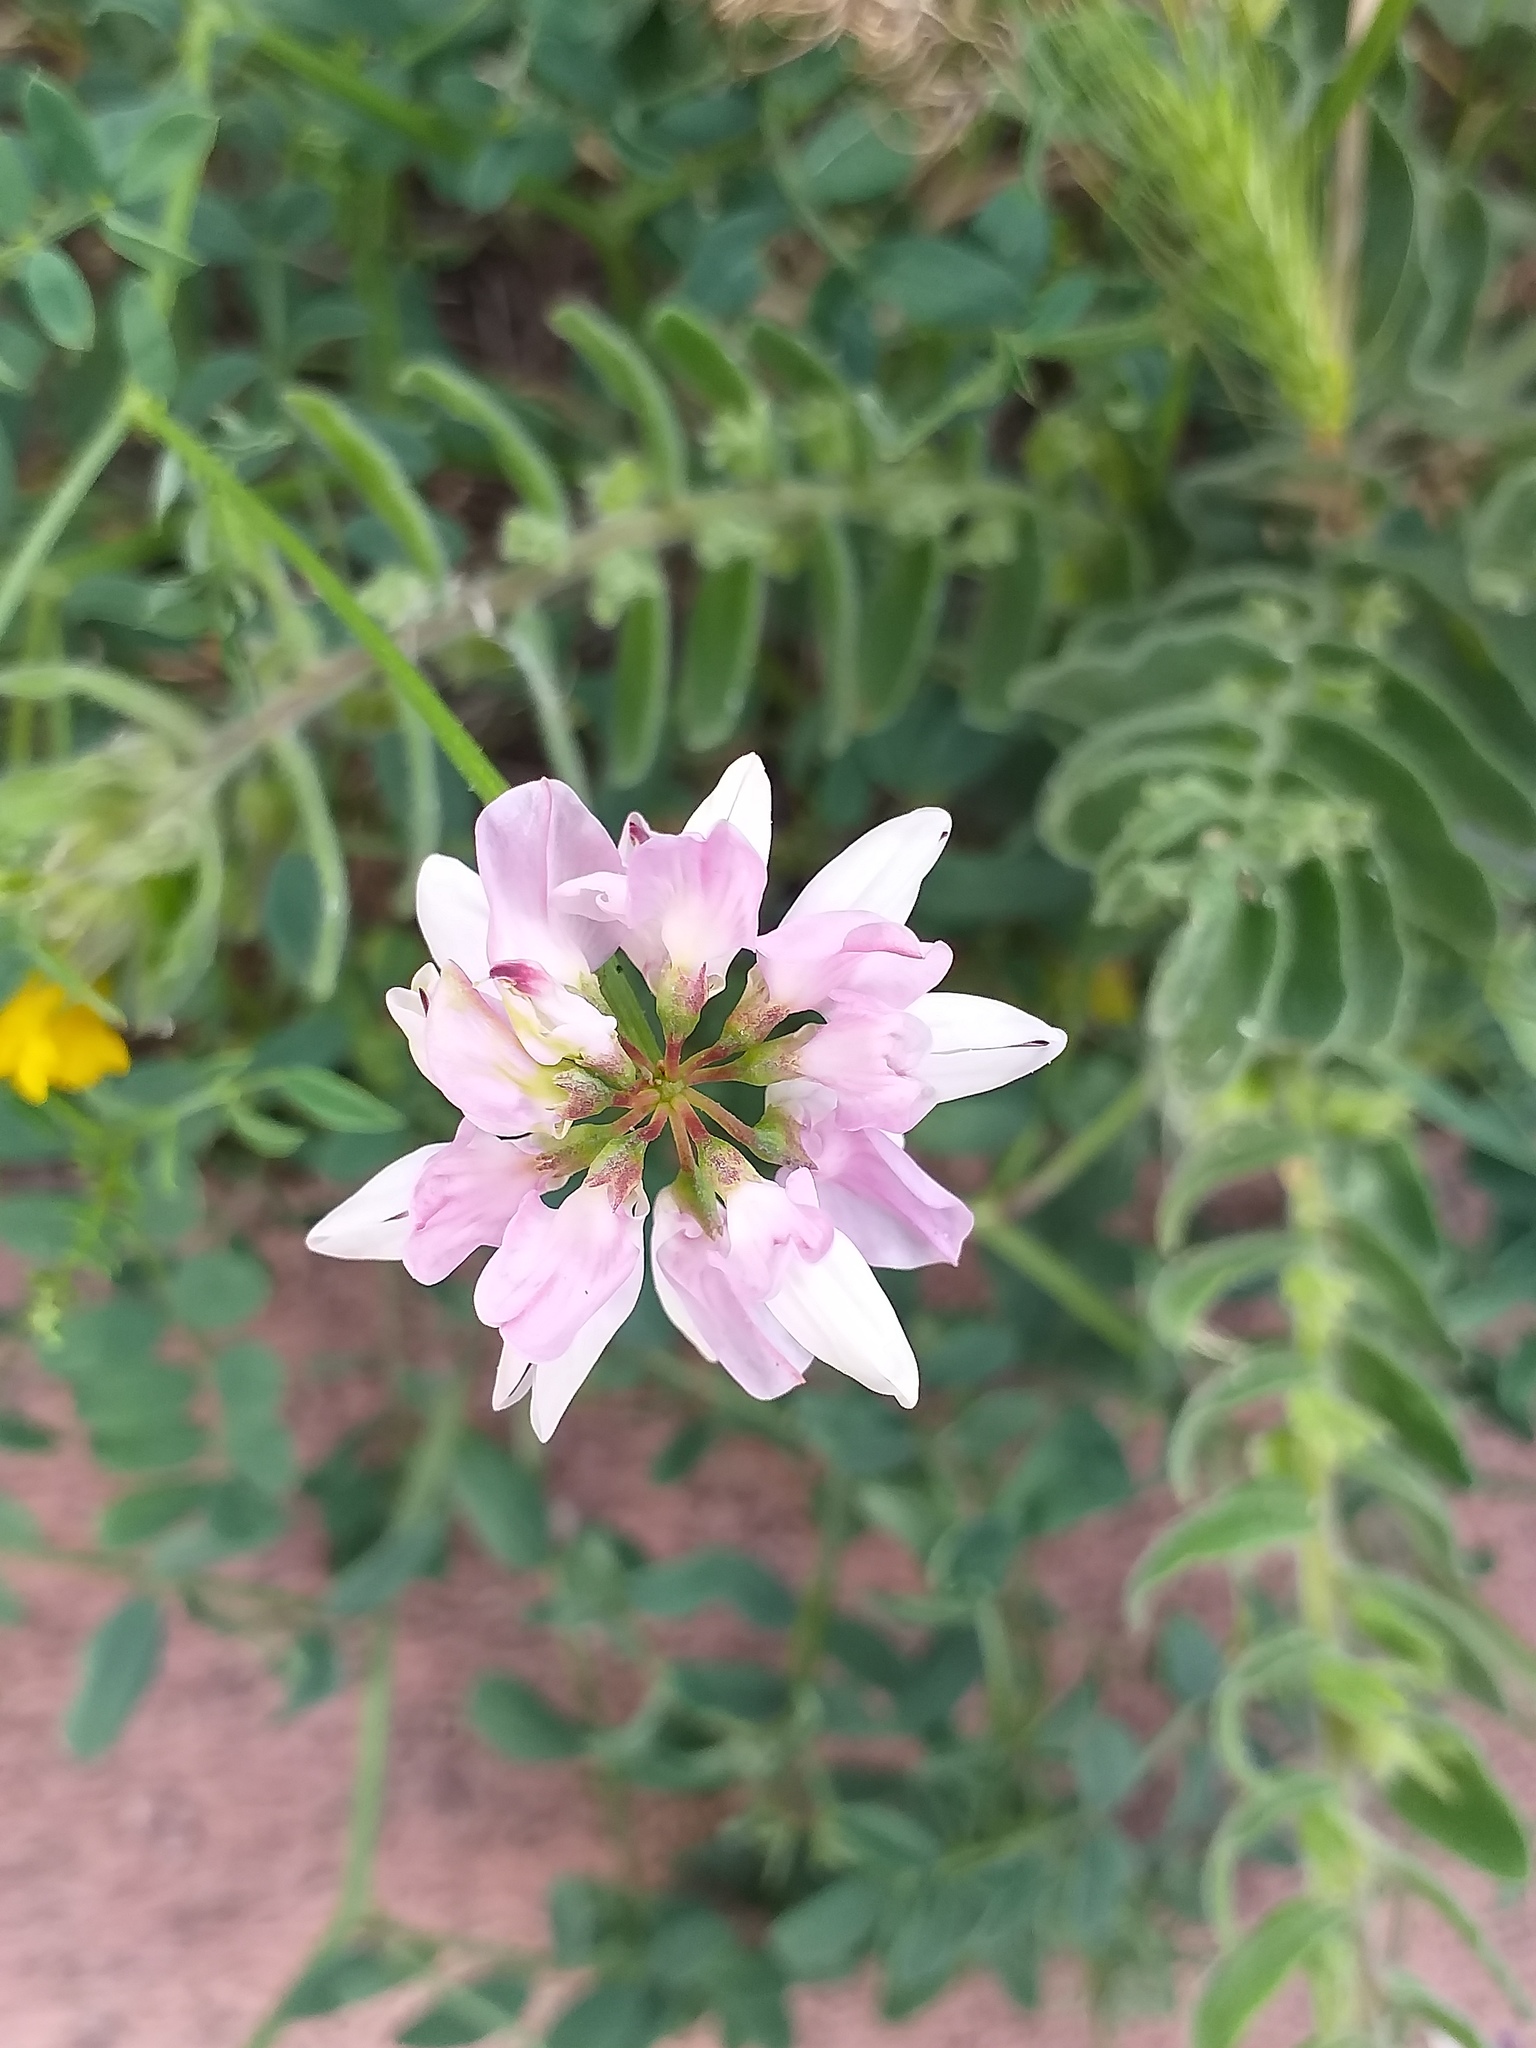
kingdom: Plantae
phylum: Tracheophyta
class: Magnoliopsida
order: Fabales
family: Fabaceae
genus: Coronilla
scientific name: Coronilla varia
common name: Crownvetch
